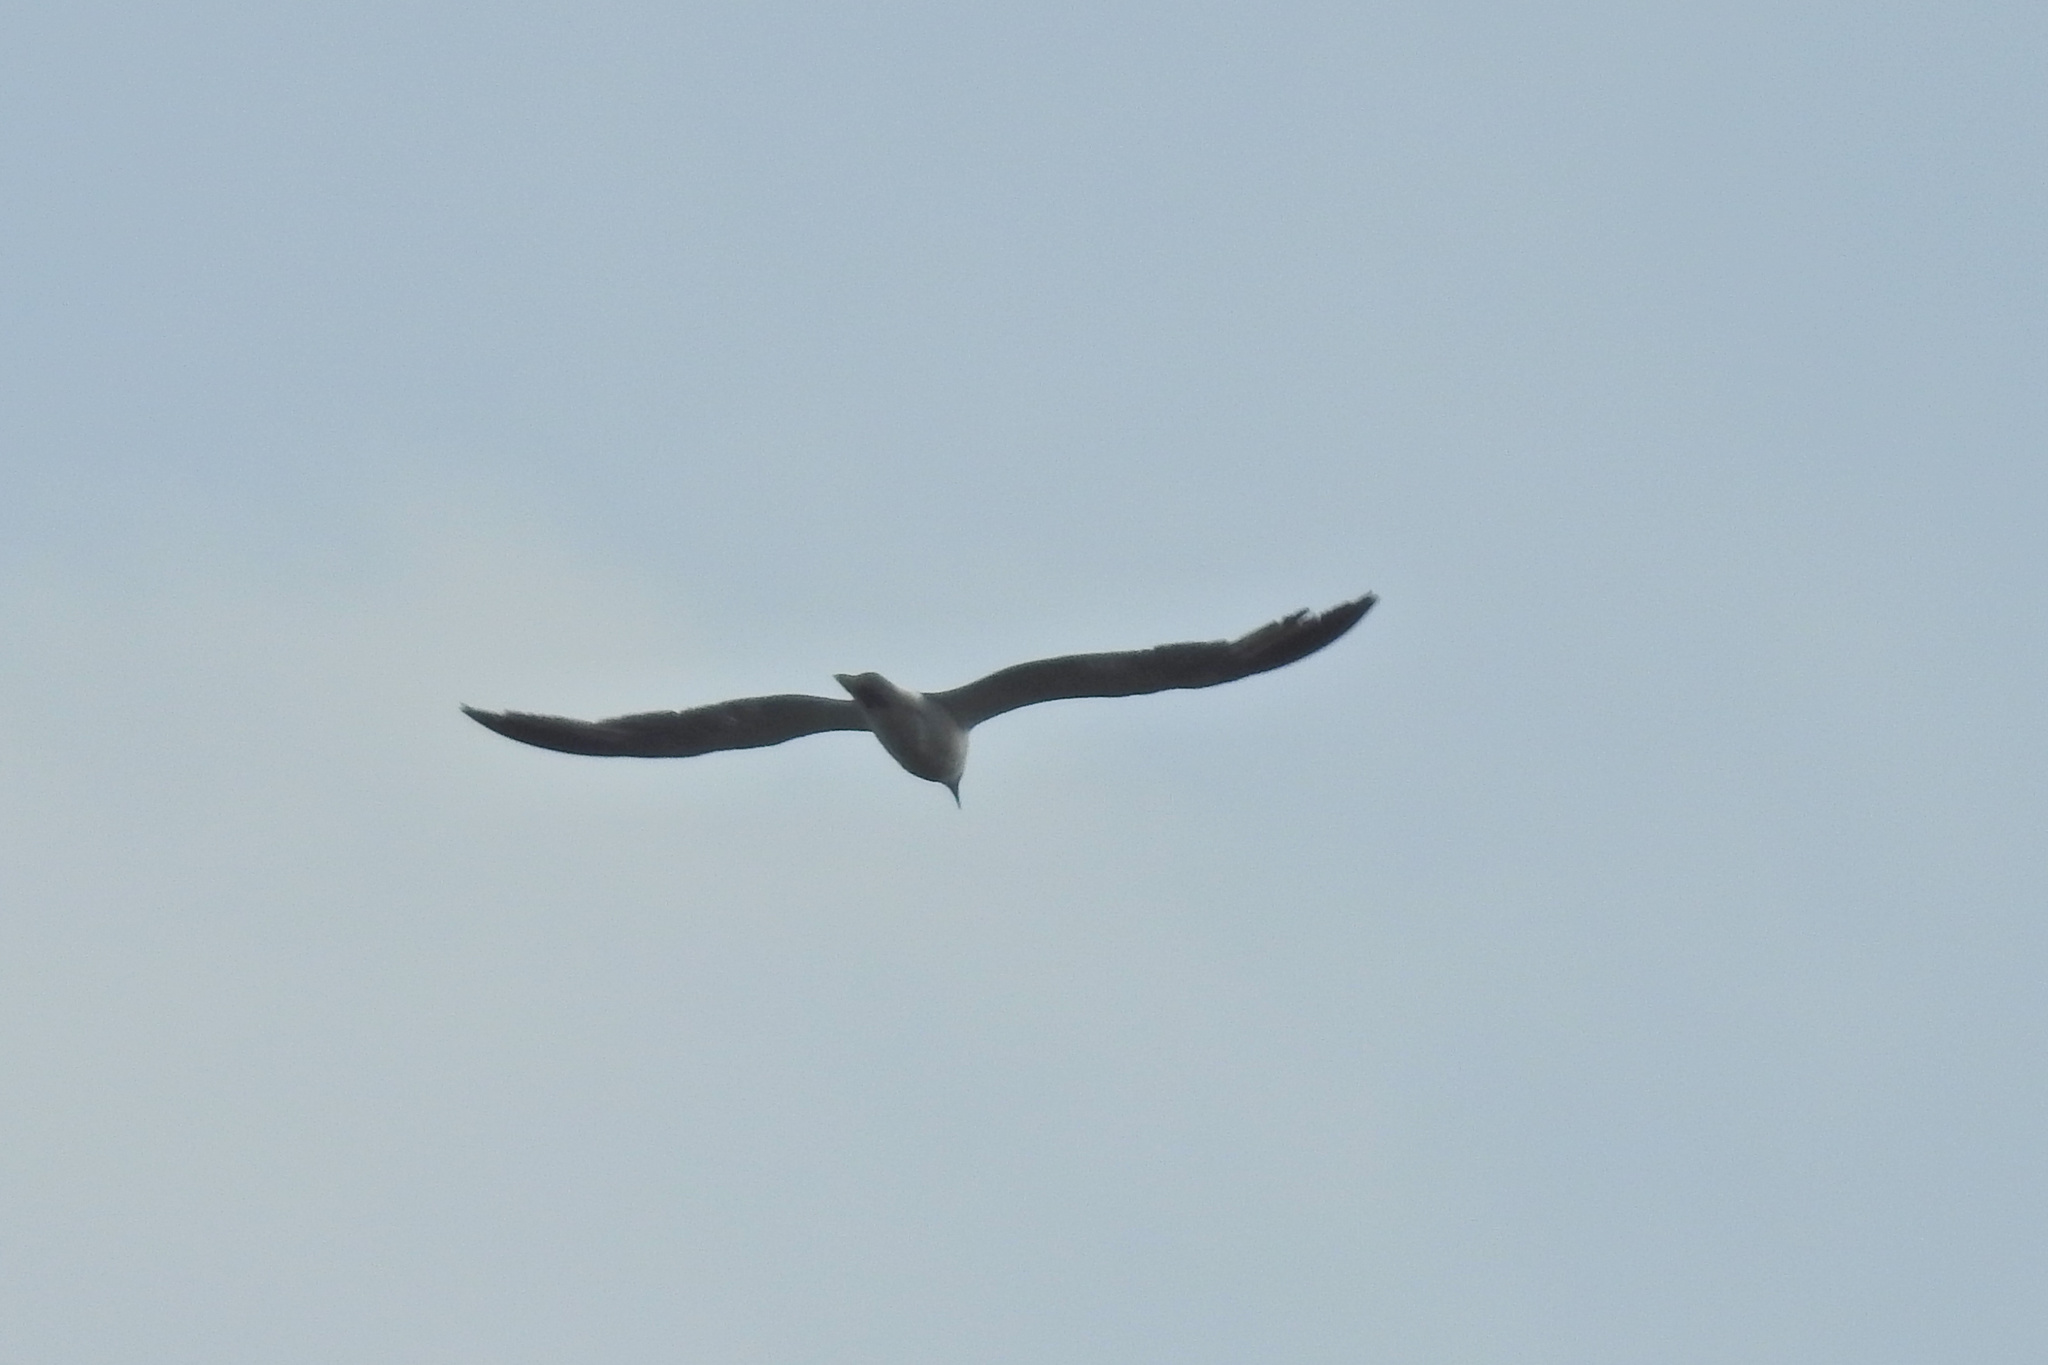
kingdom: Animalia
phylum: Chordata
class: Aves
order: Charadriiformes
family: Laridae
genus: Leucophaeus
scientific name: Leucophaeus atricilla
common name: Laughing gull
